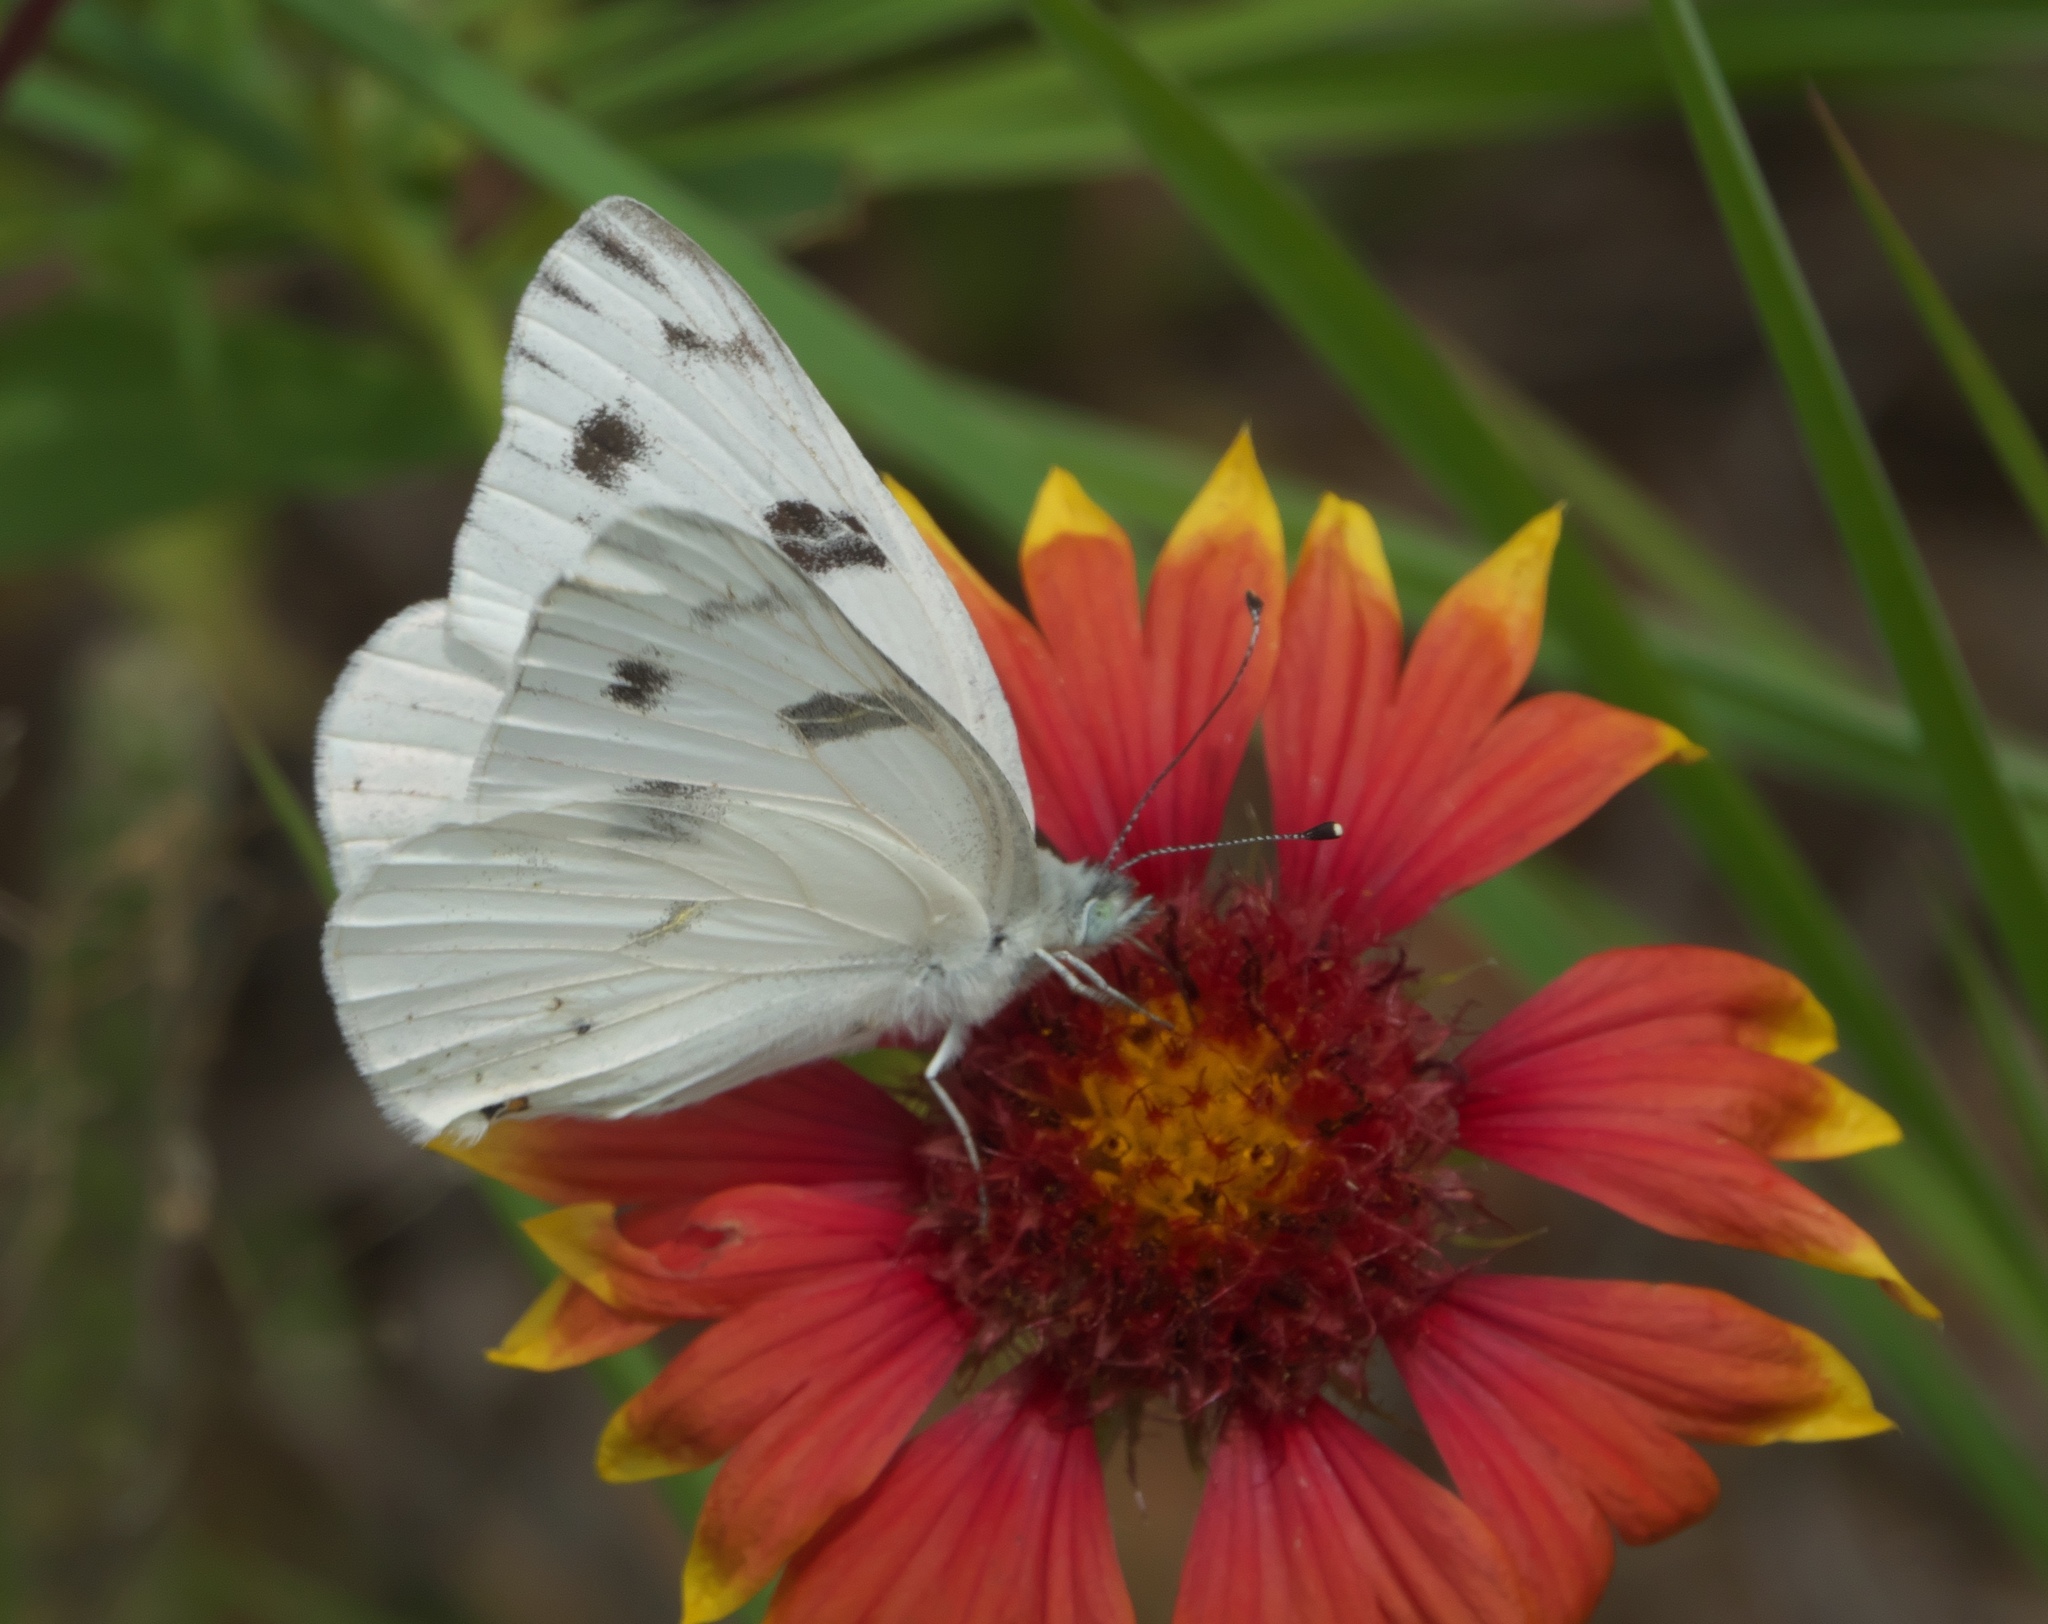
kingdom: Animalia
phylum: Arthropoda
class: Insecta
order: Lepidoptera
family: Pieridae
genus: Pontia
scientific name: Pontia protodice
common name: Checkered white
